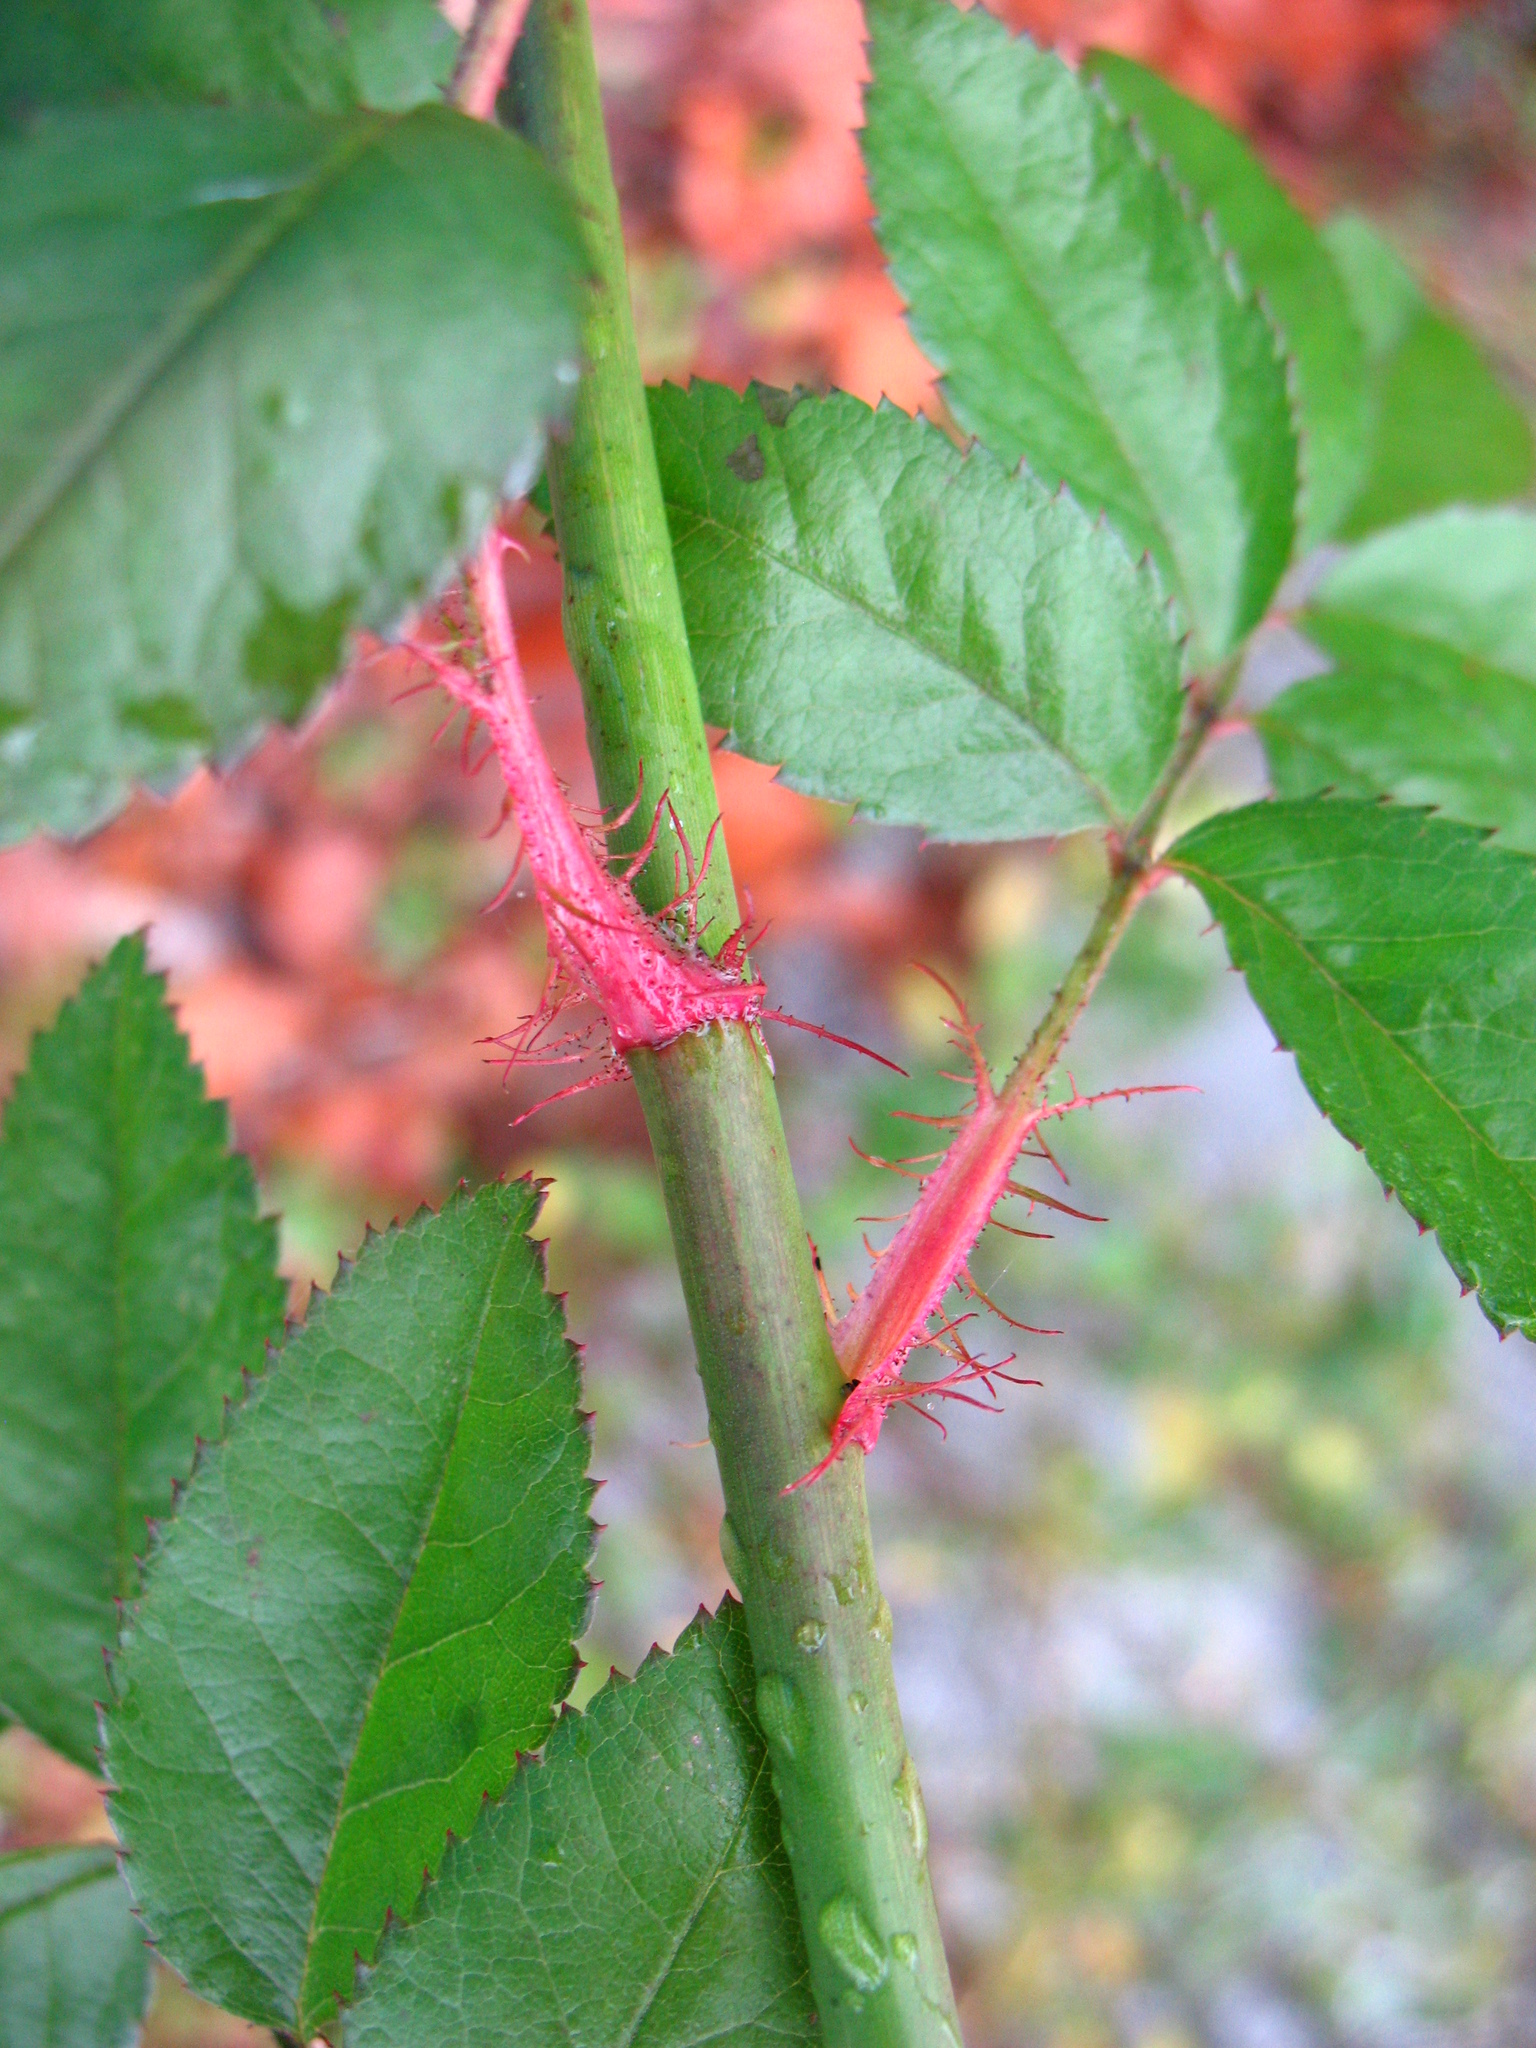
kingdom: Plantae
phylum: Tracheophyta
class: Magnoliopsida
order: Rosales
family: Rosaceae
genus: Rosa
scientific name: Rosa multiflora
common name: Multiflora rose
